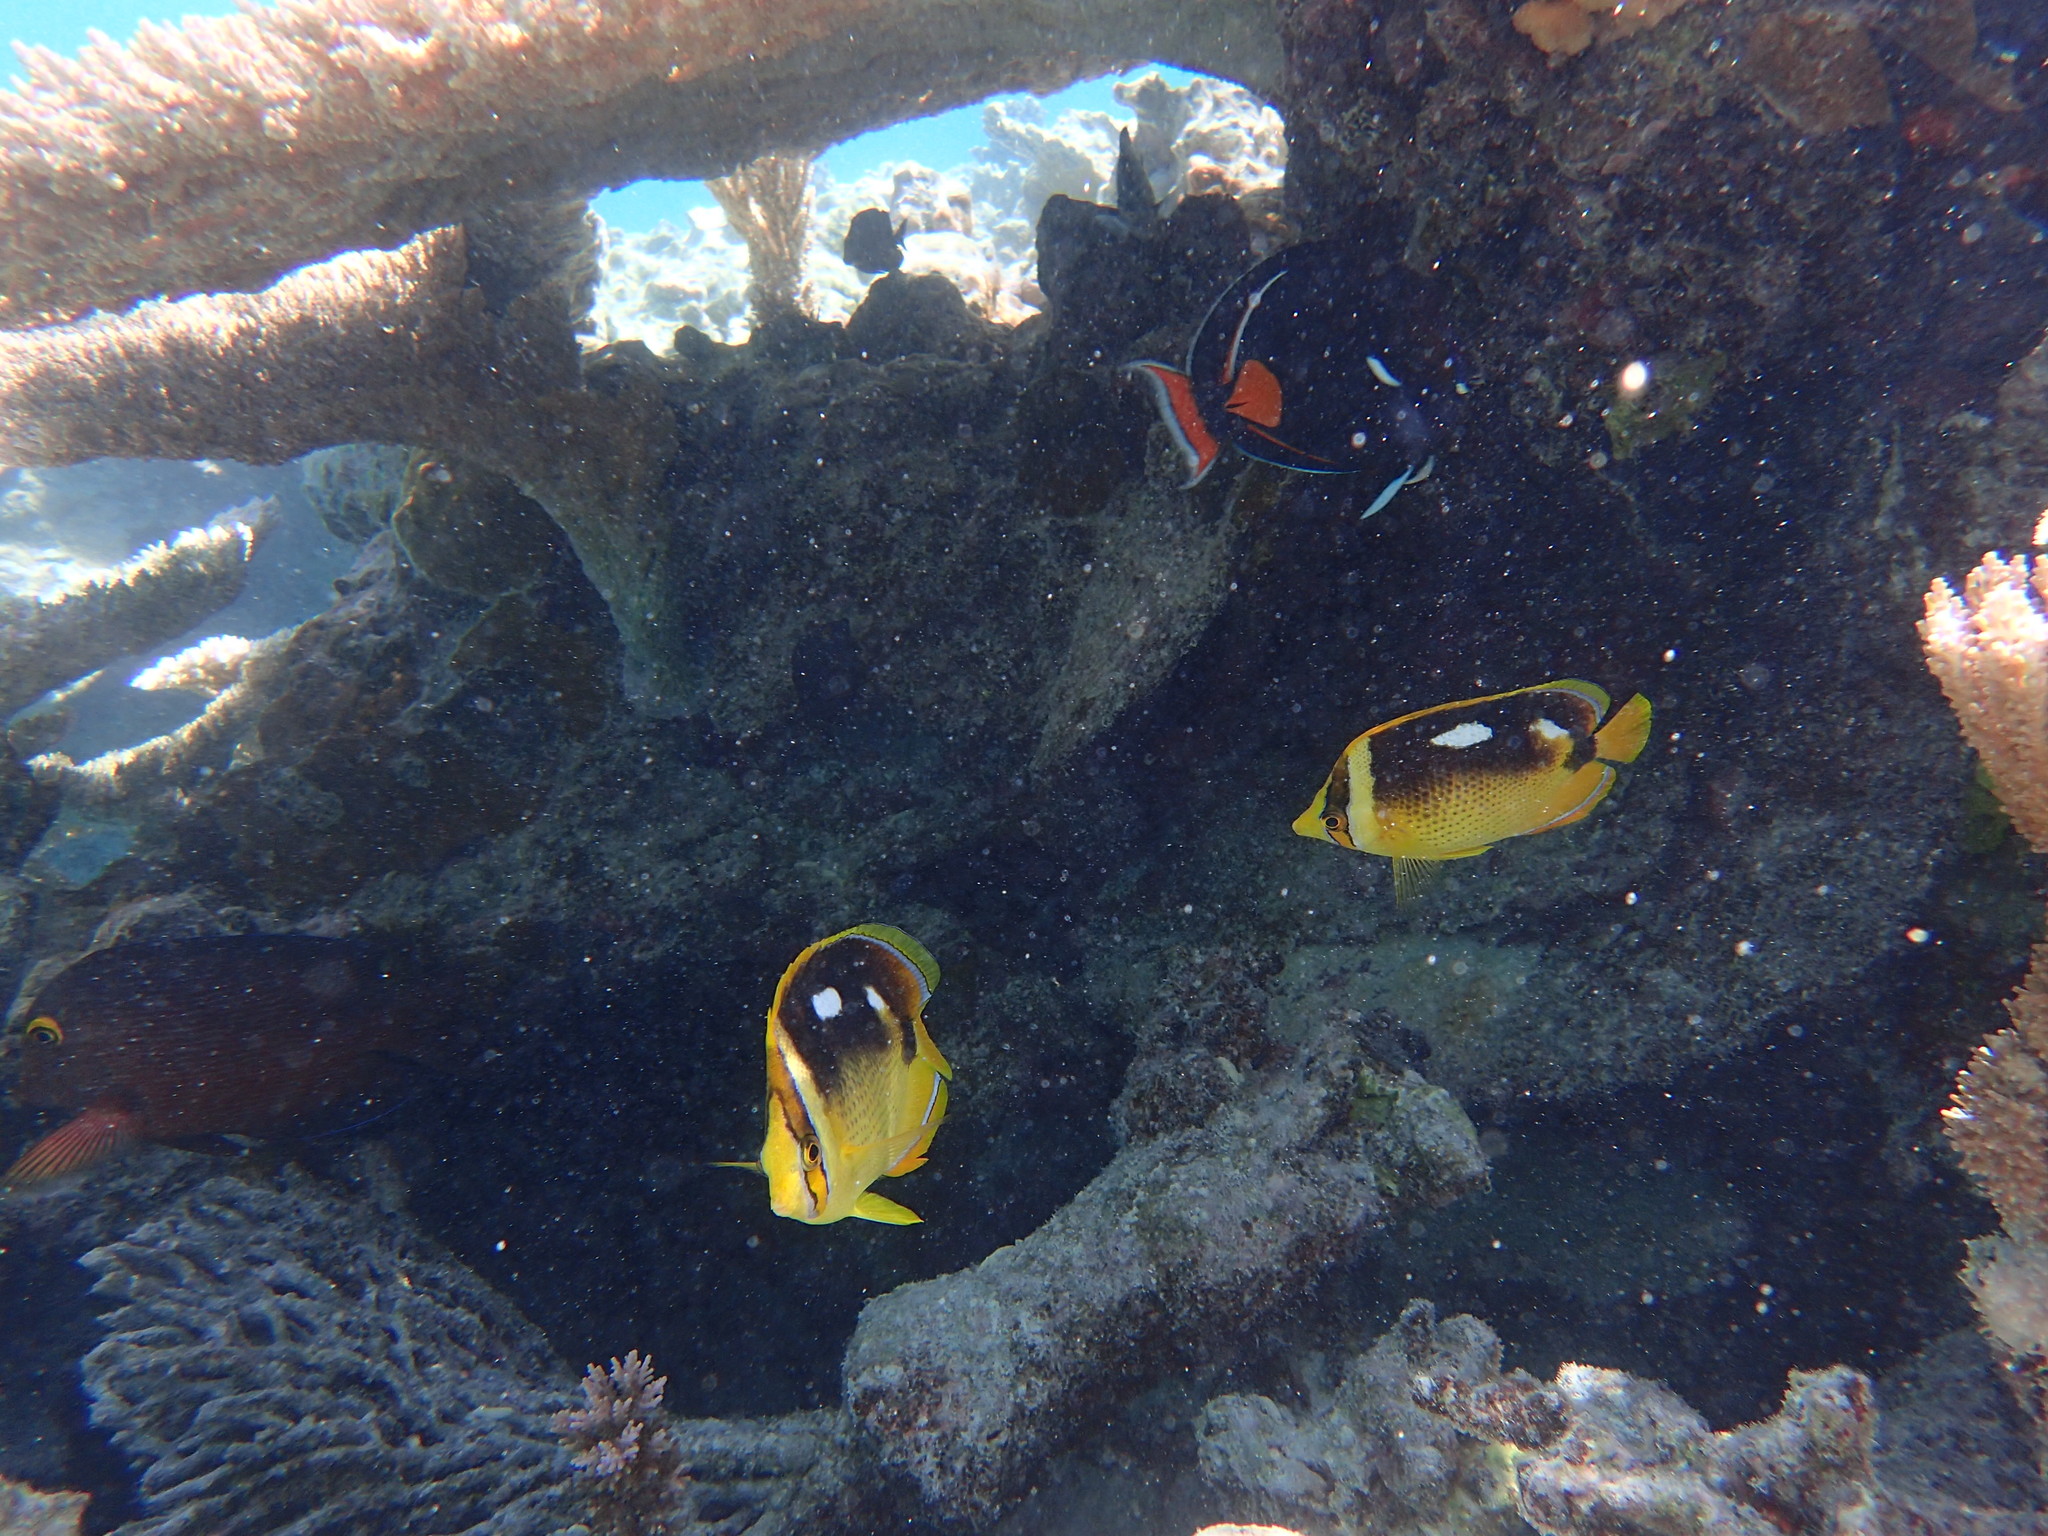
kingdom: Animalia
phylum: Chordata
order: Perciformes
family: Chaetodontidae
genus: Chaetodon
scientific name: Chaetodon quadrimaculatus
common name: Fourspot butterflyfish
